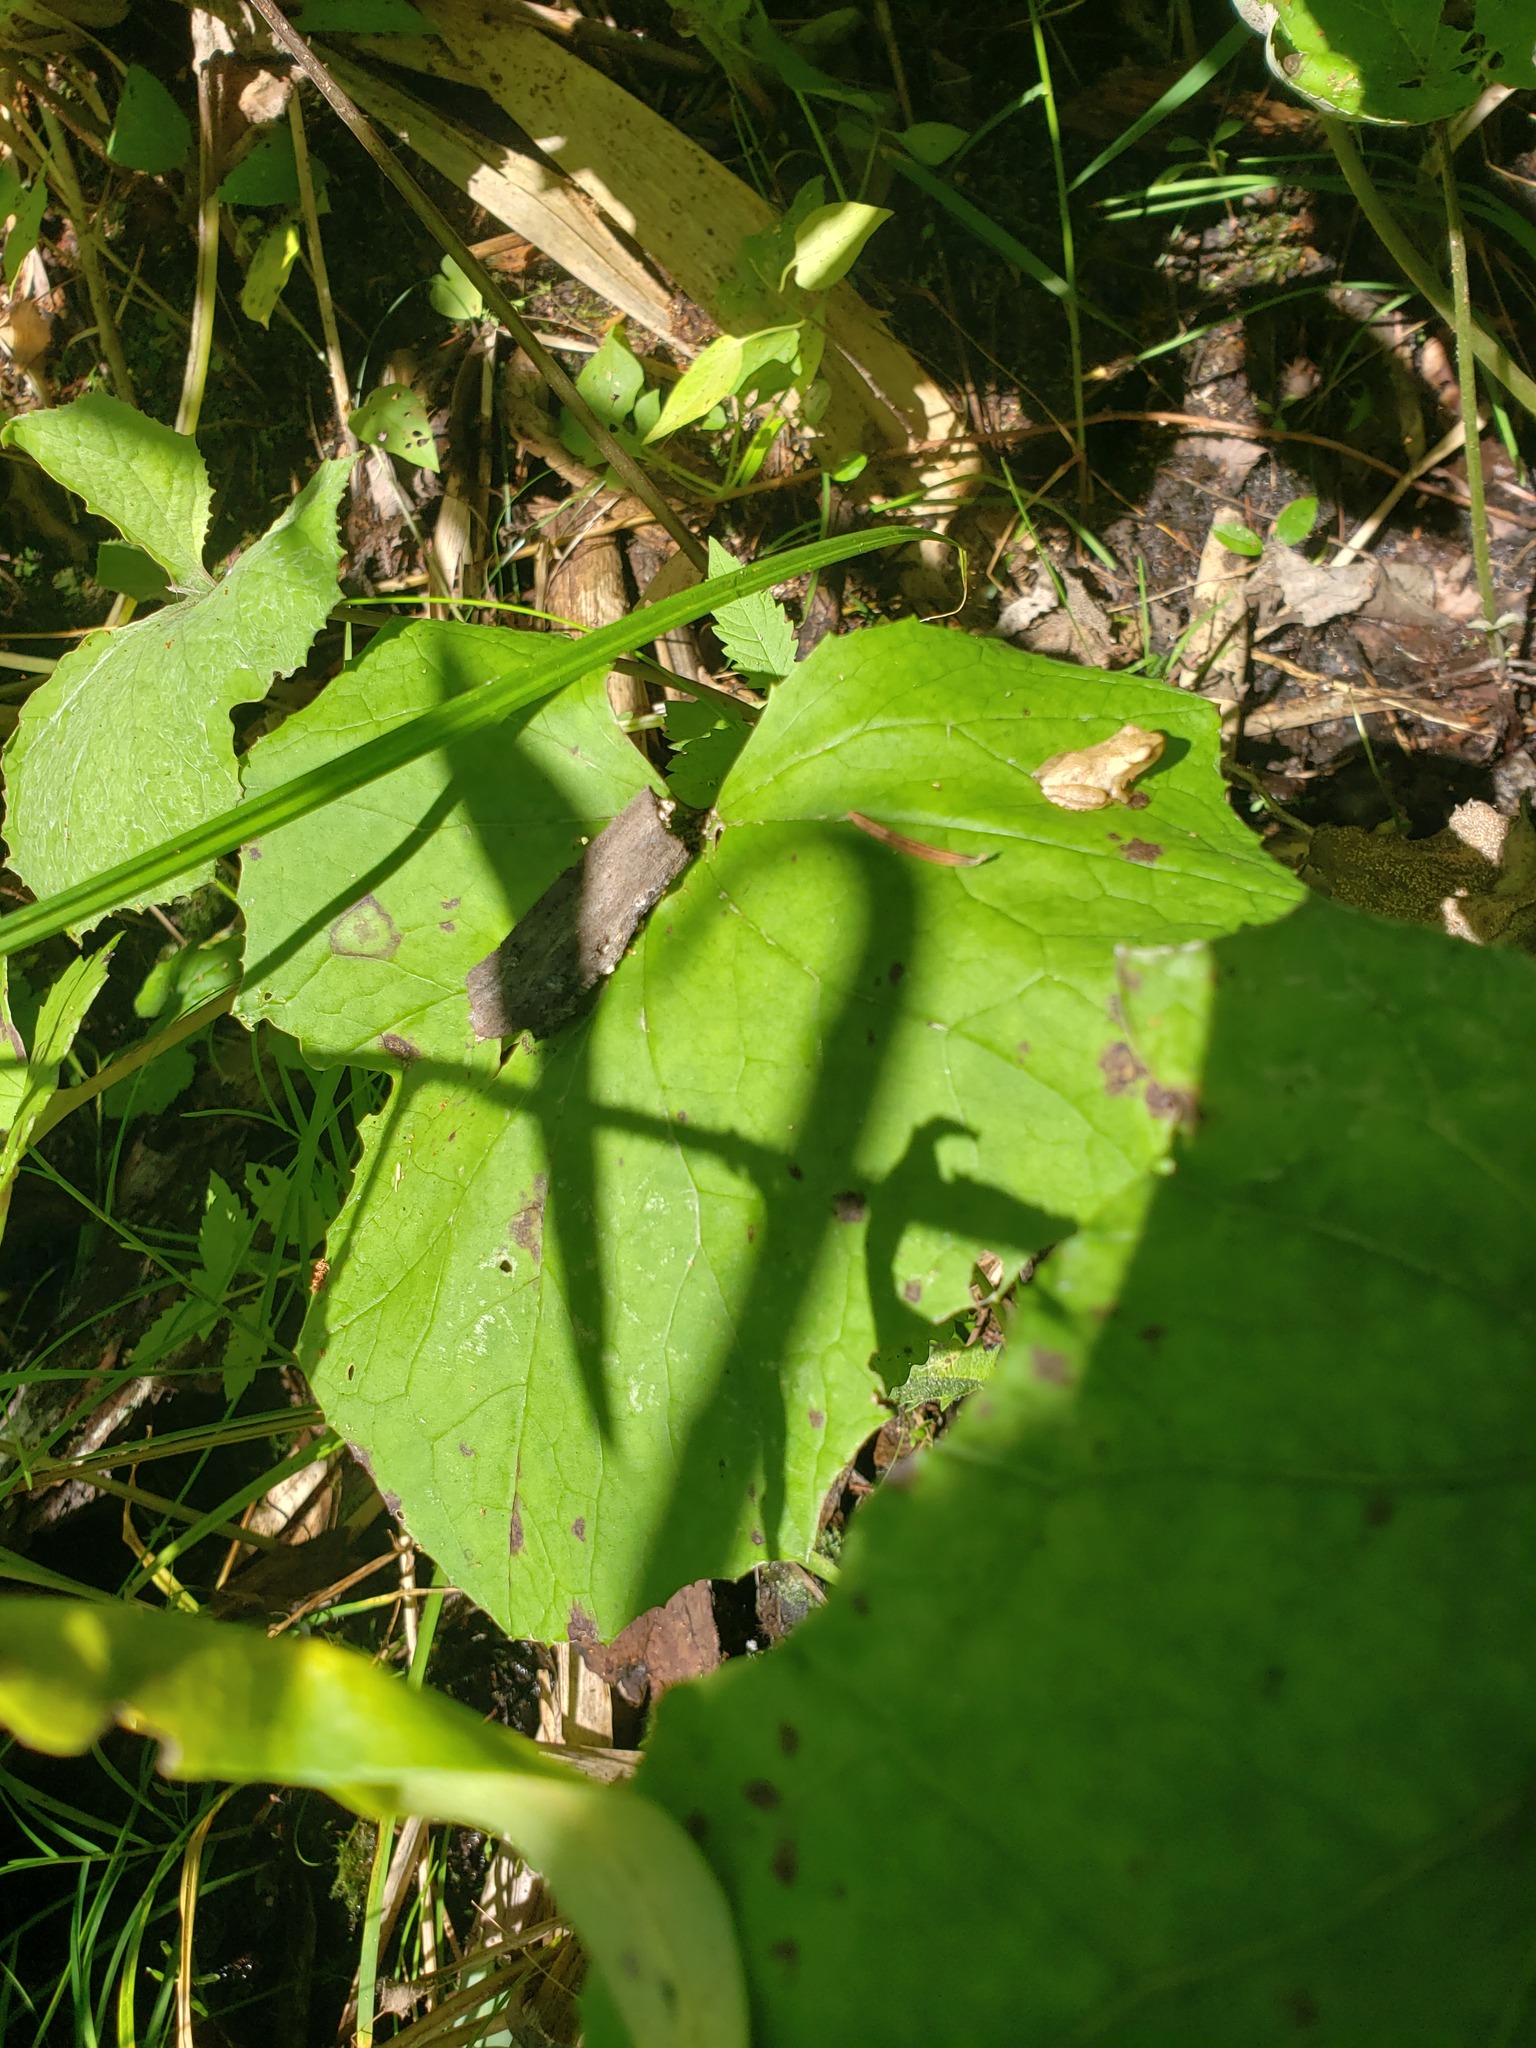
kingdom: Animalia
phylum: Chordata
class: Amphibia
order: Anura
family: Hylidae
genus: Pseudacris
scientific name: Pseudacris crucifer
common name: Spring peeper
